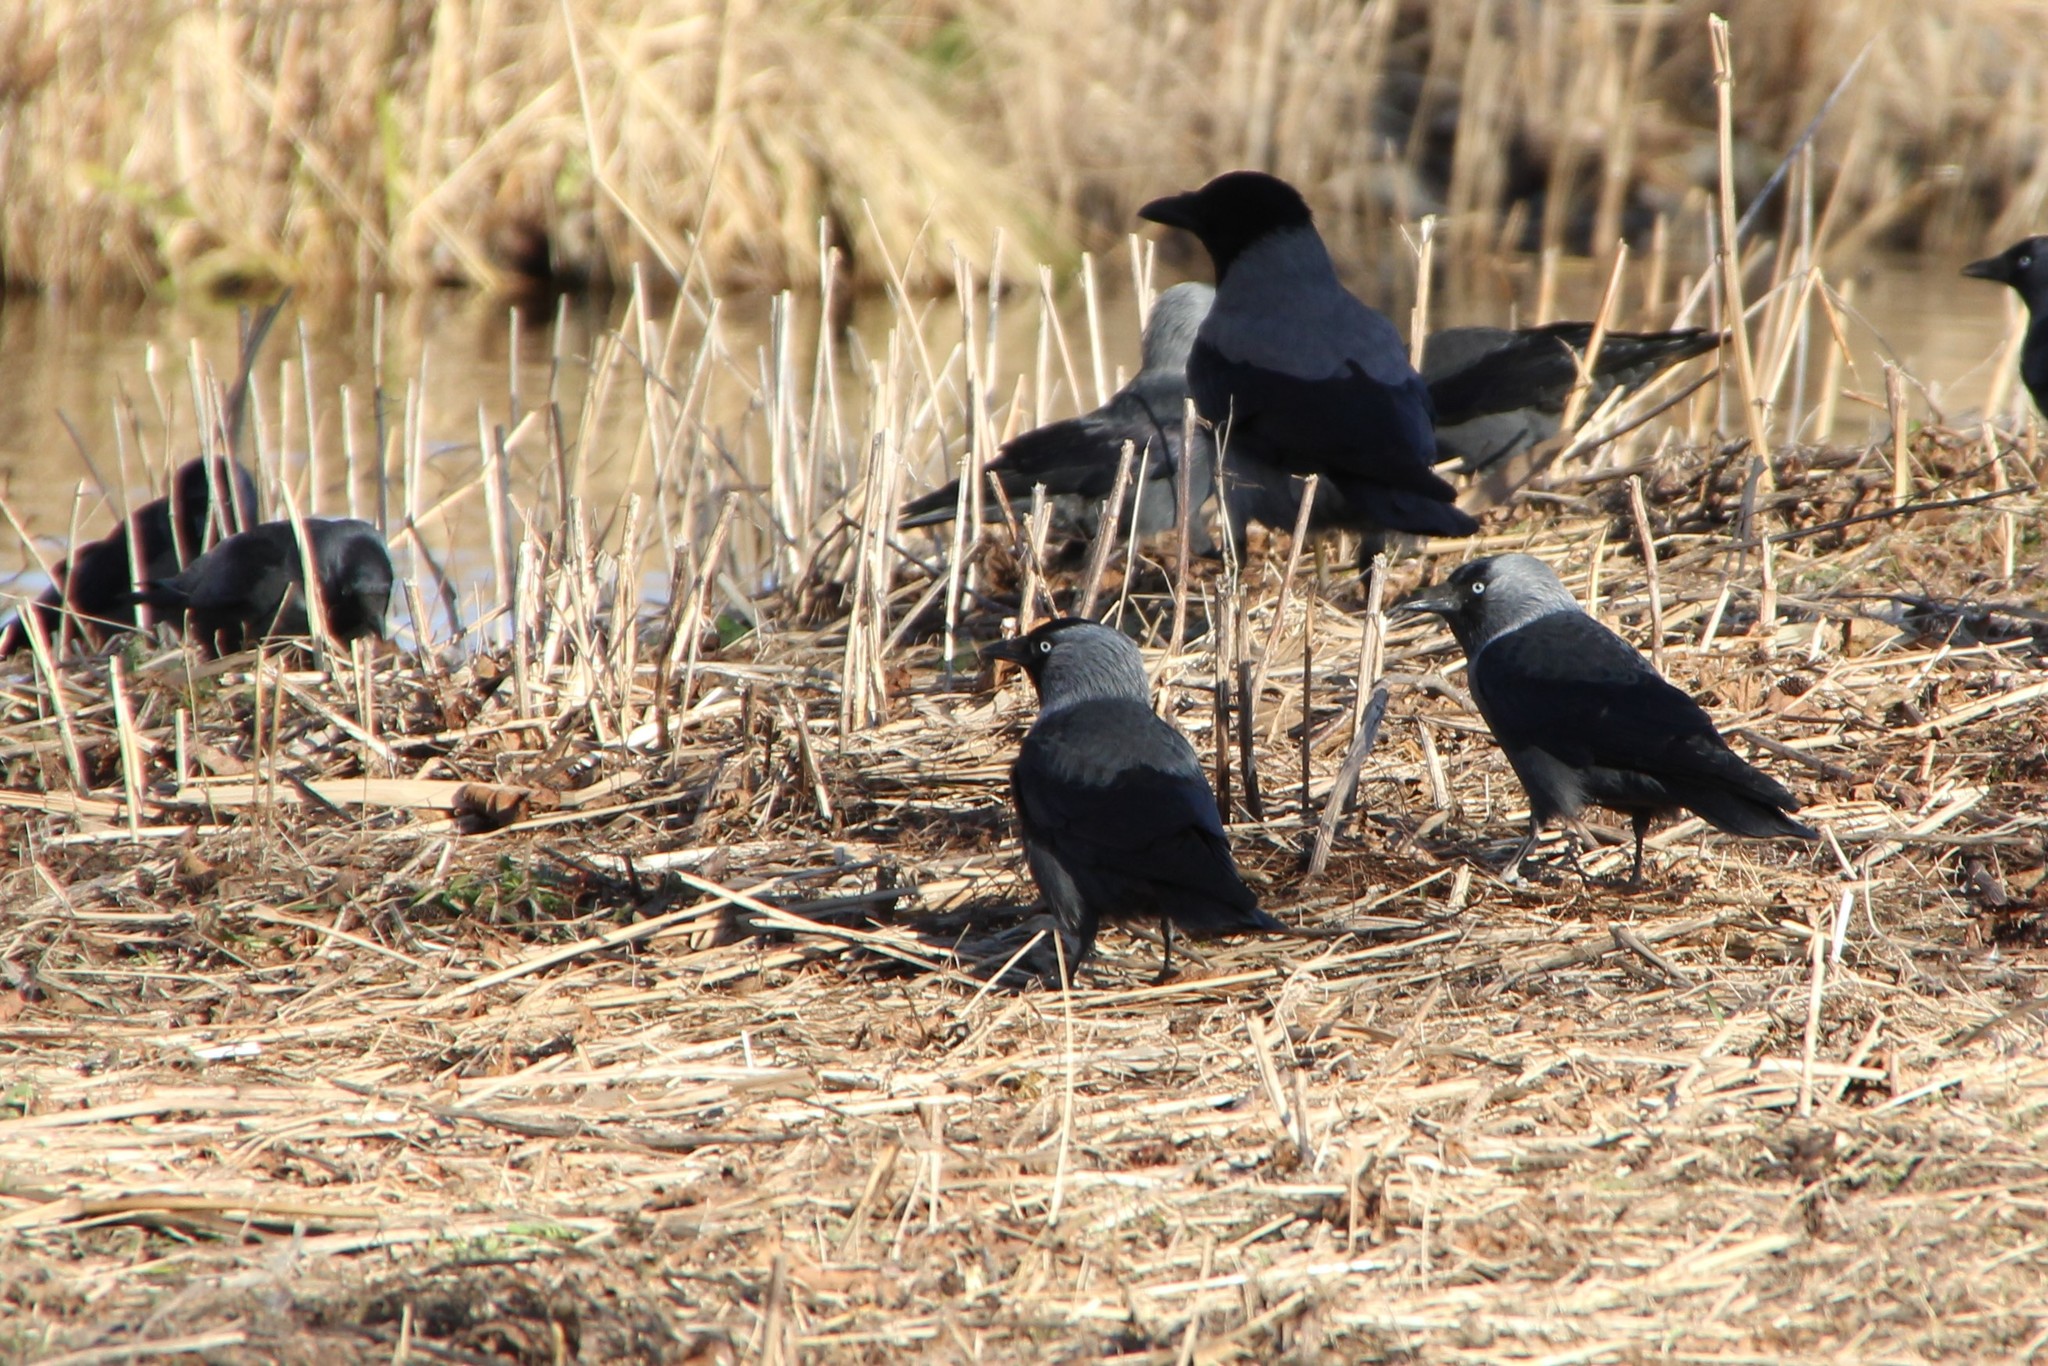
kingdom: Animalia
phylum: Chordata
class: Aves
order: Passeriformes
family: Corvidae
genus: Coloeus
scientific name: Coloeus monedula
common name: Western jackdaw
